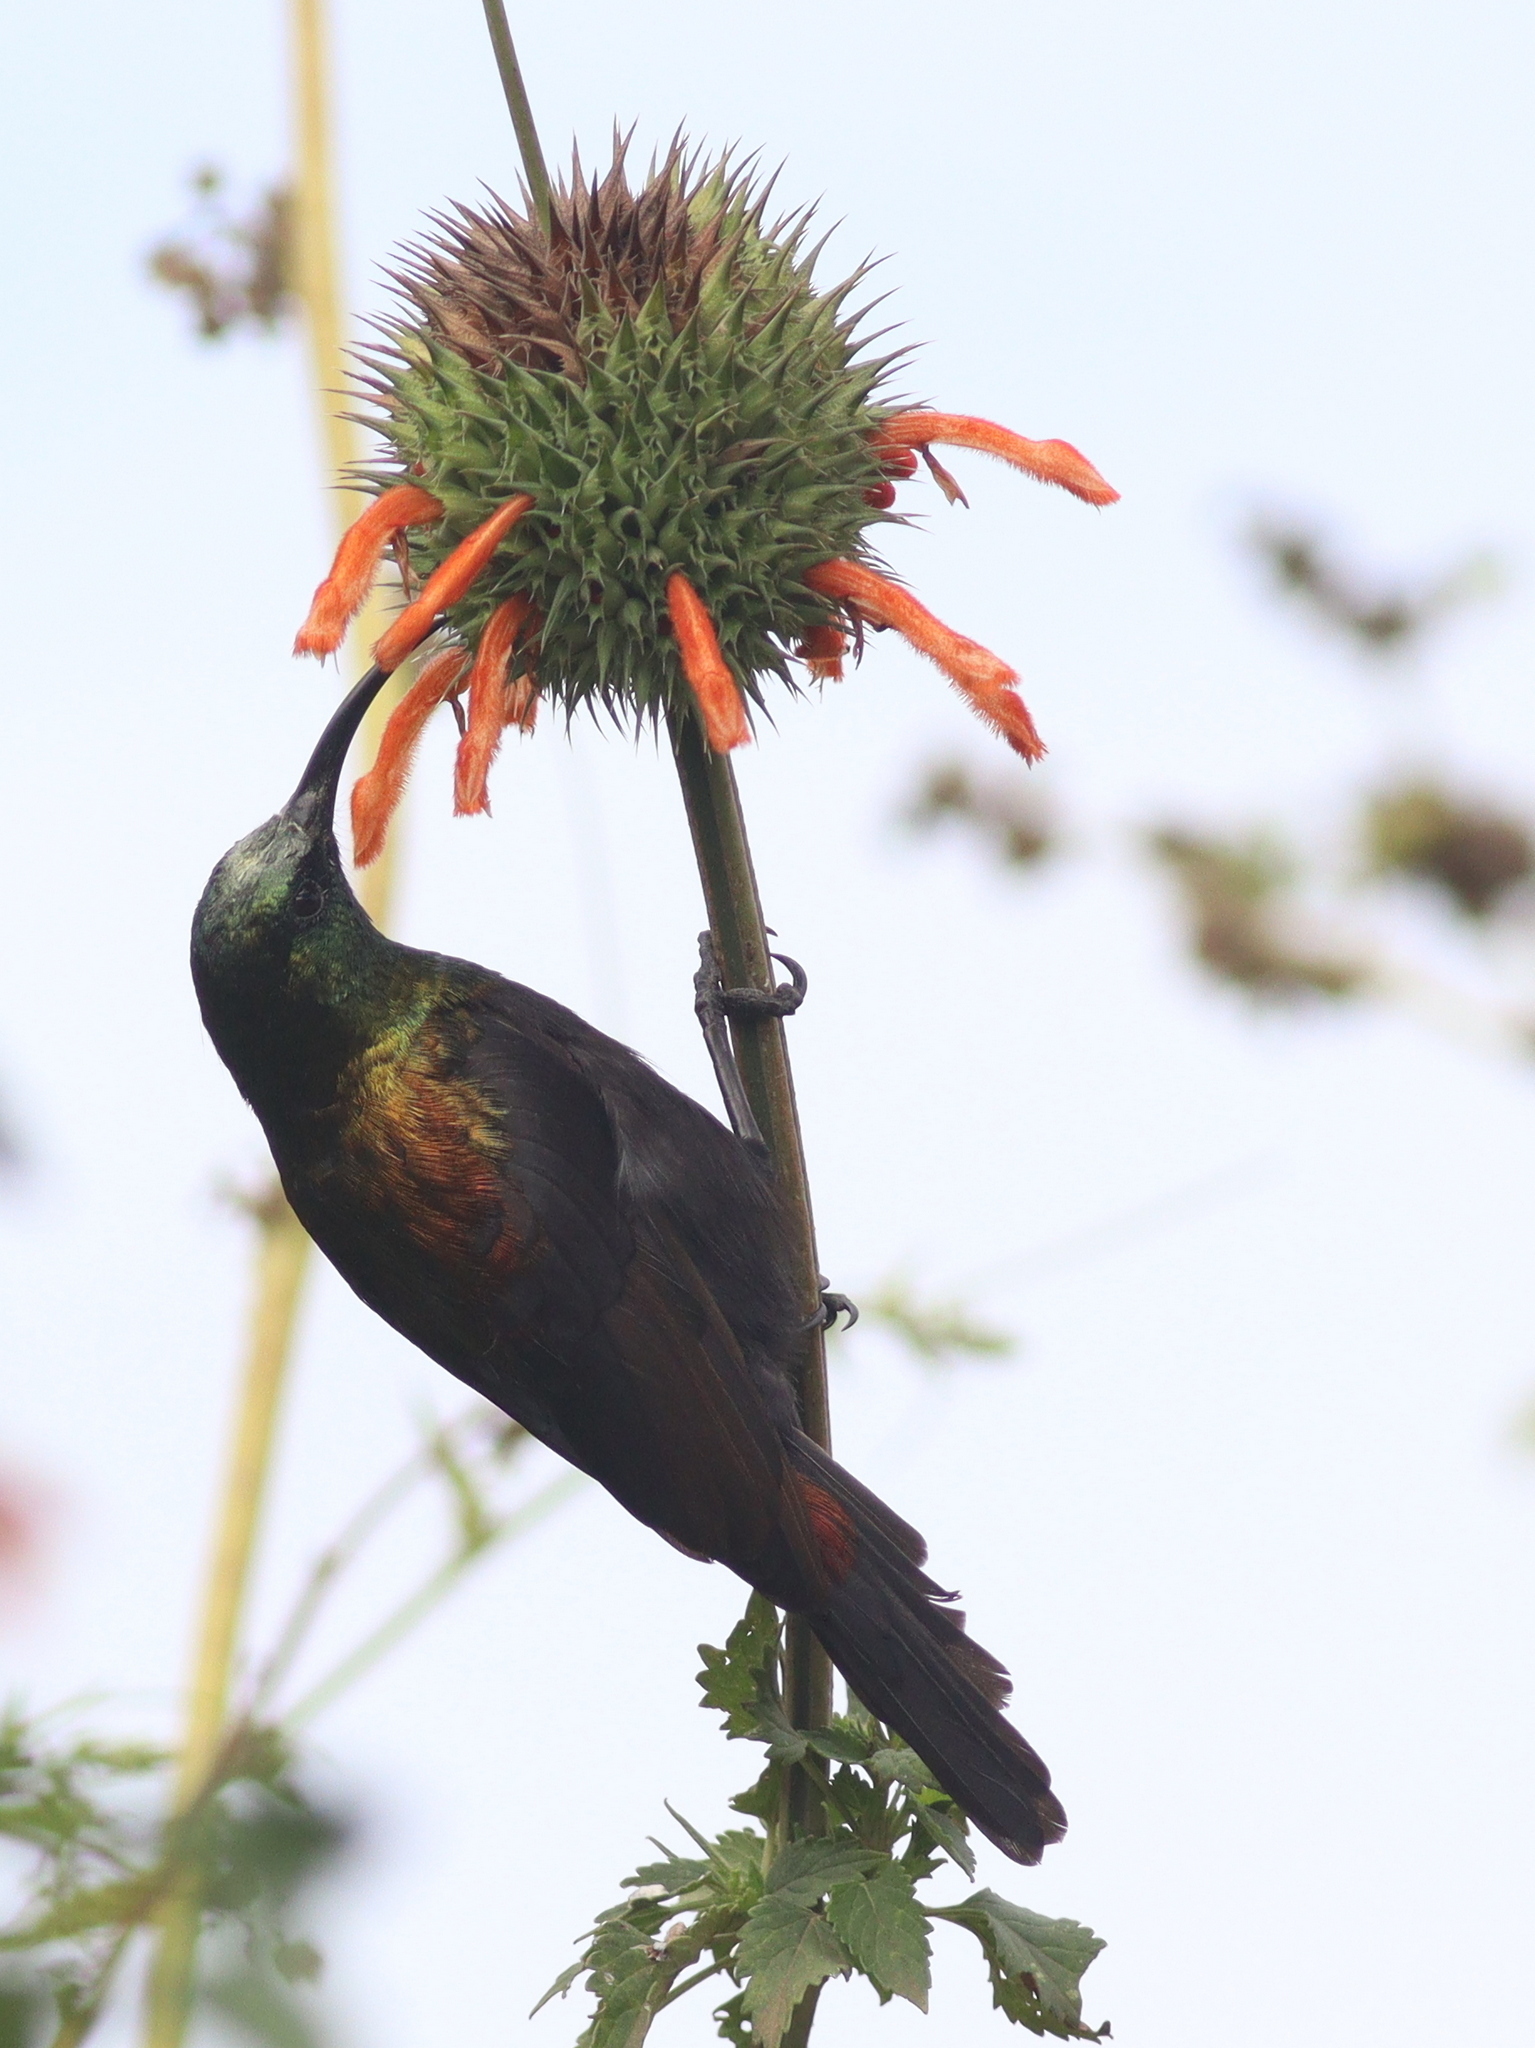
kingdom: Animalia
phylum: Chordata
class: Aves
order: Passeriformes
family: Nectariniidae
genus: Nectarinia
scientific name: Nectarinia kilimensis
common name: Bronzy sunbird
